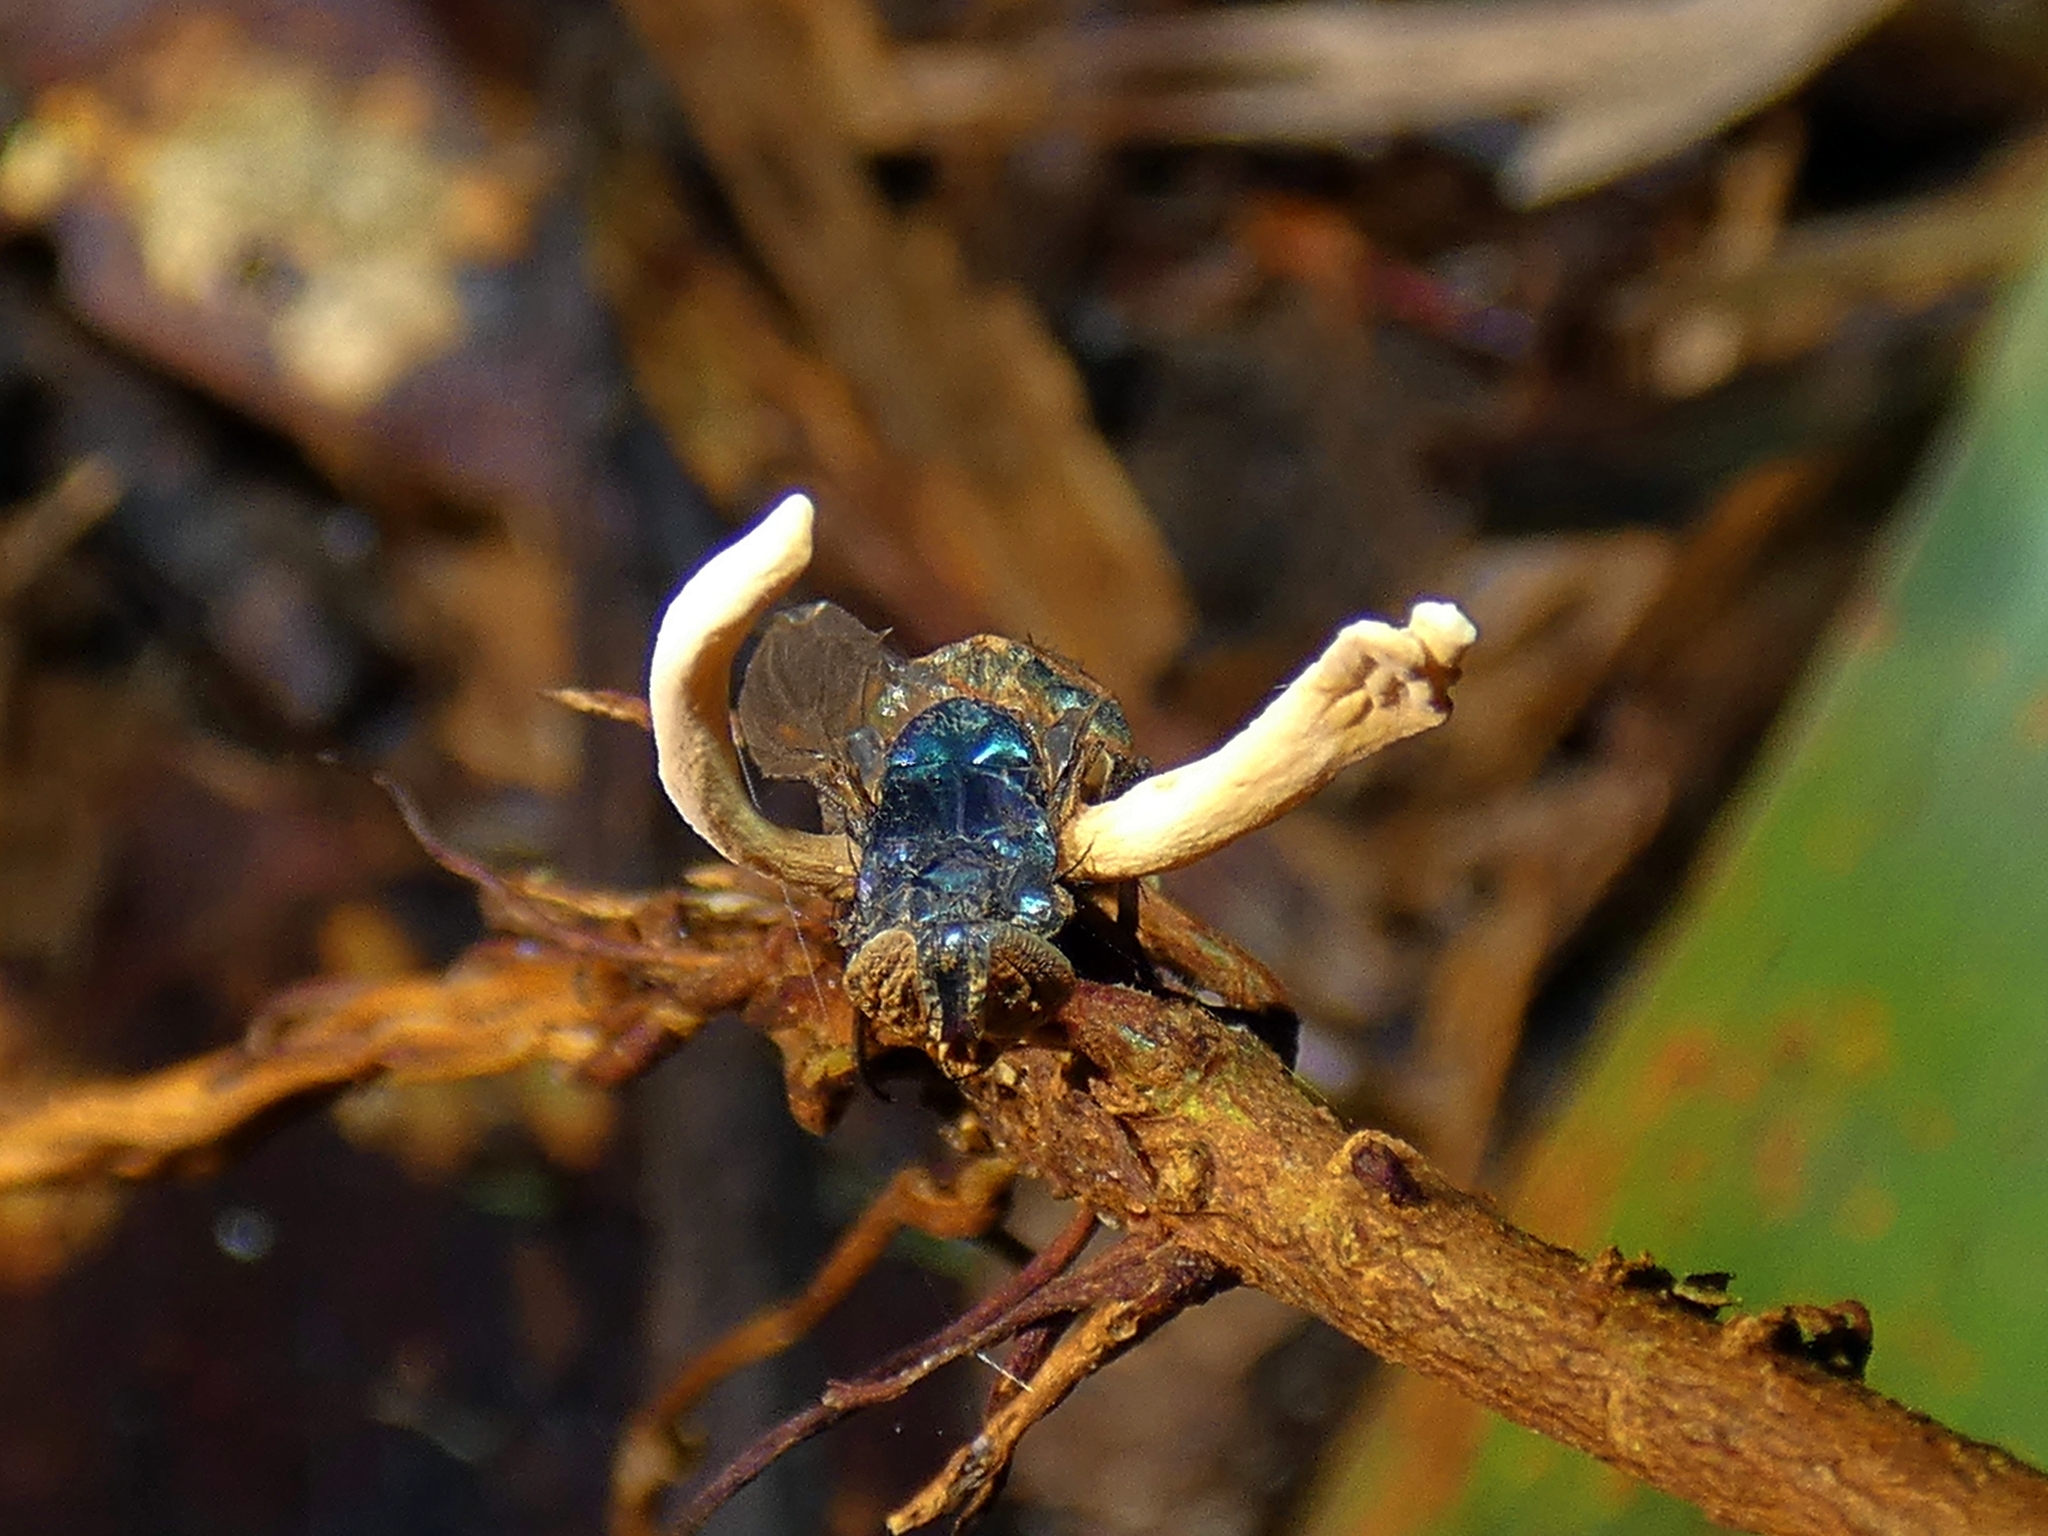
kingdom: Fungi
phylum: Ascomycota
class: Sordariomycetes
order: Hypocreales
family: Ophiocordycipitaceae
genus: Ophiocordyceps
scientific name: Ophiocordyceps dipterigena
